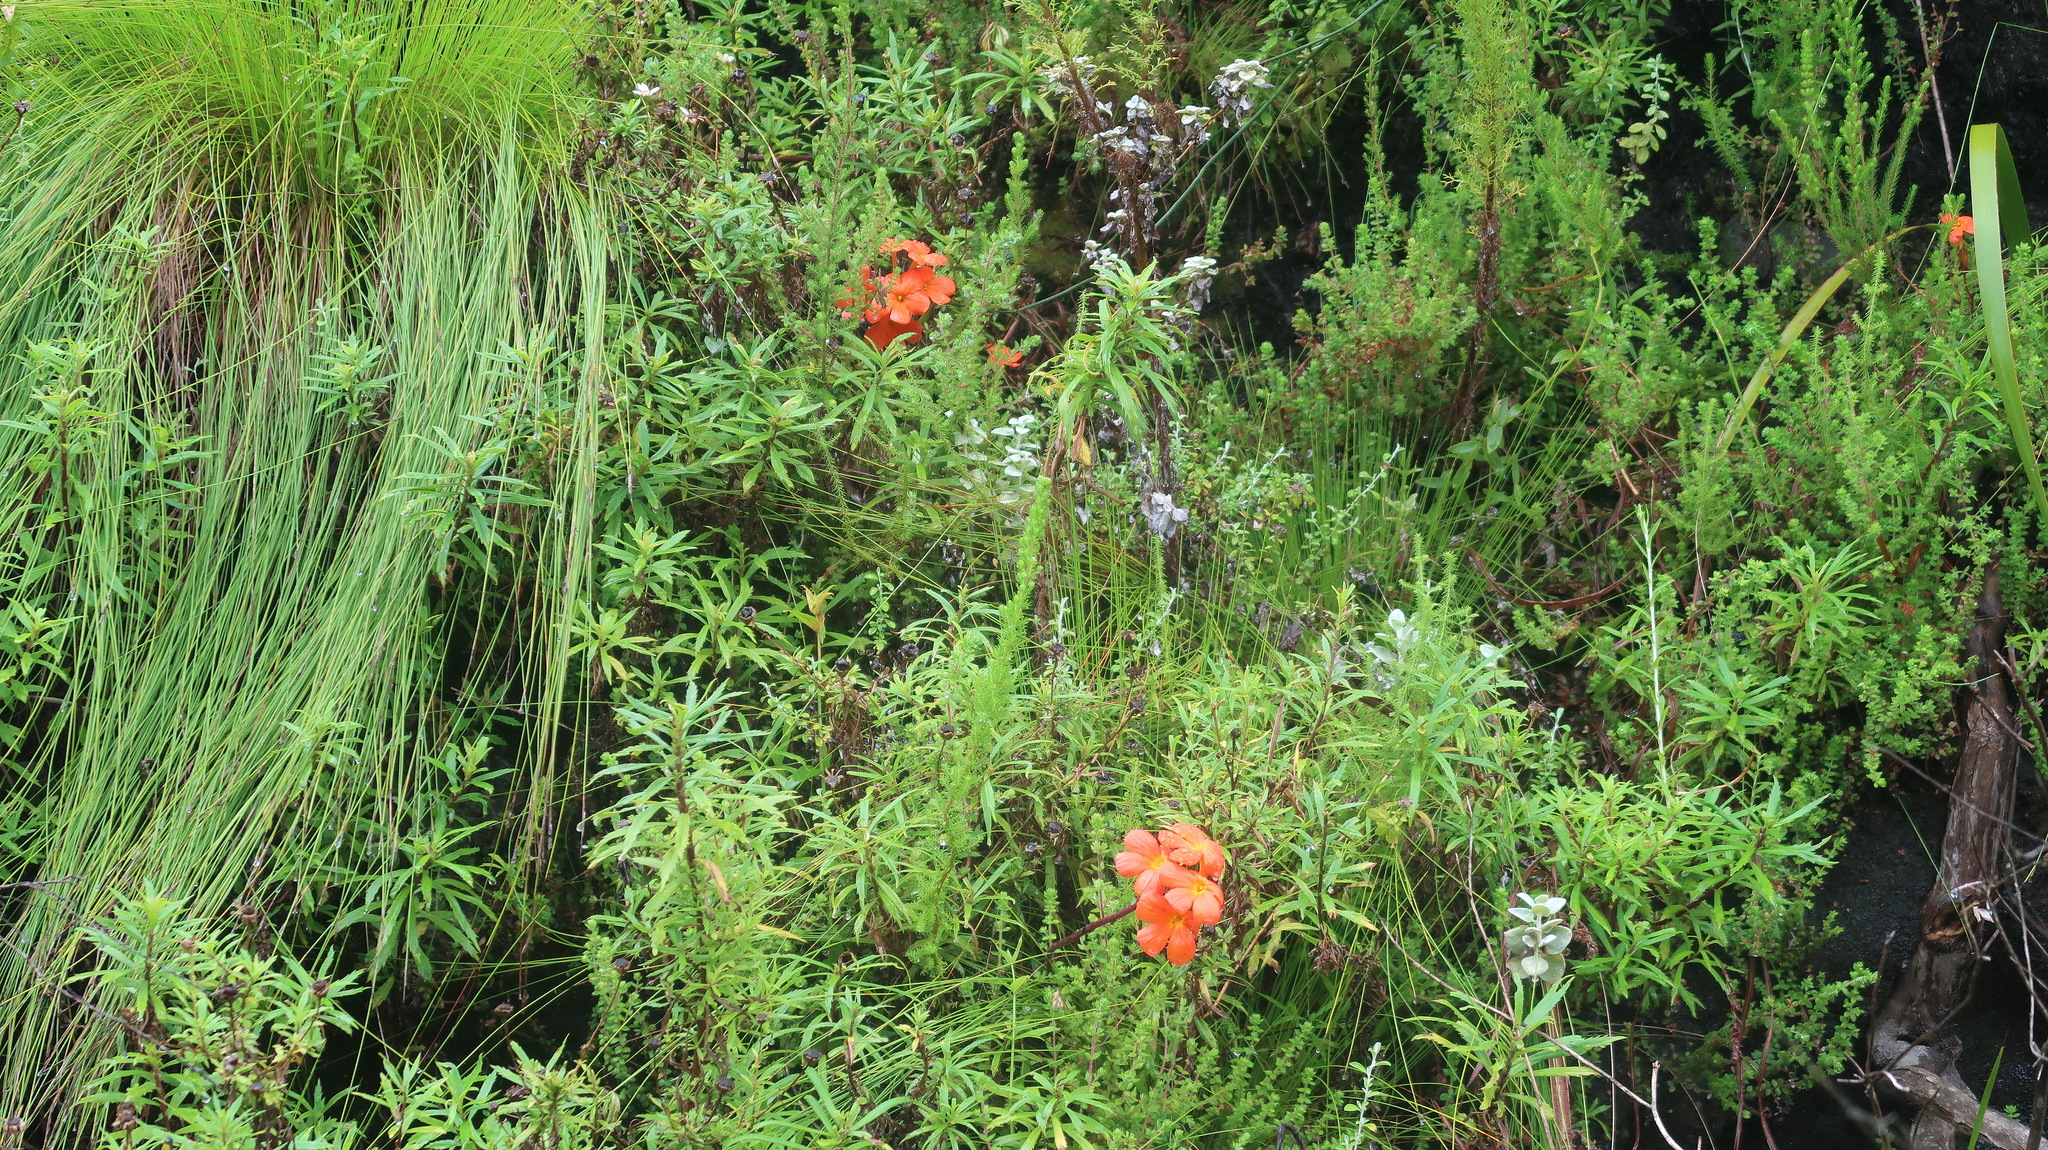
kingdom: Plantae
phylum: Tracheophyta
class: Magnoliopsida
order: Lamiales
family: Orobanchaceae
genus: Harveya
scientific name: Harveya stenosiphon
